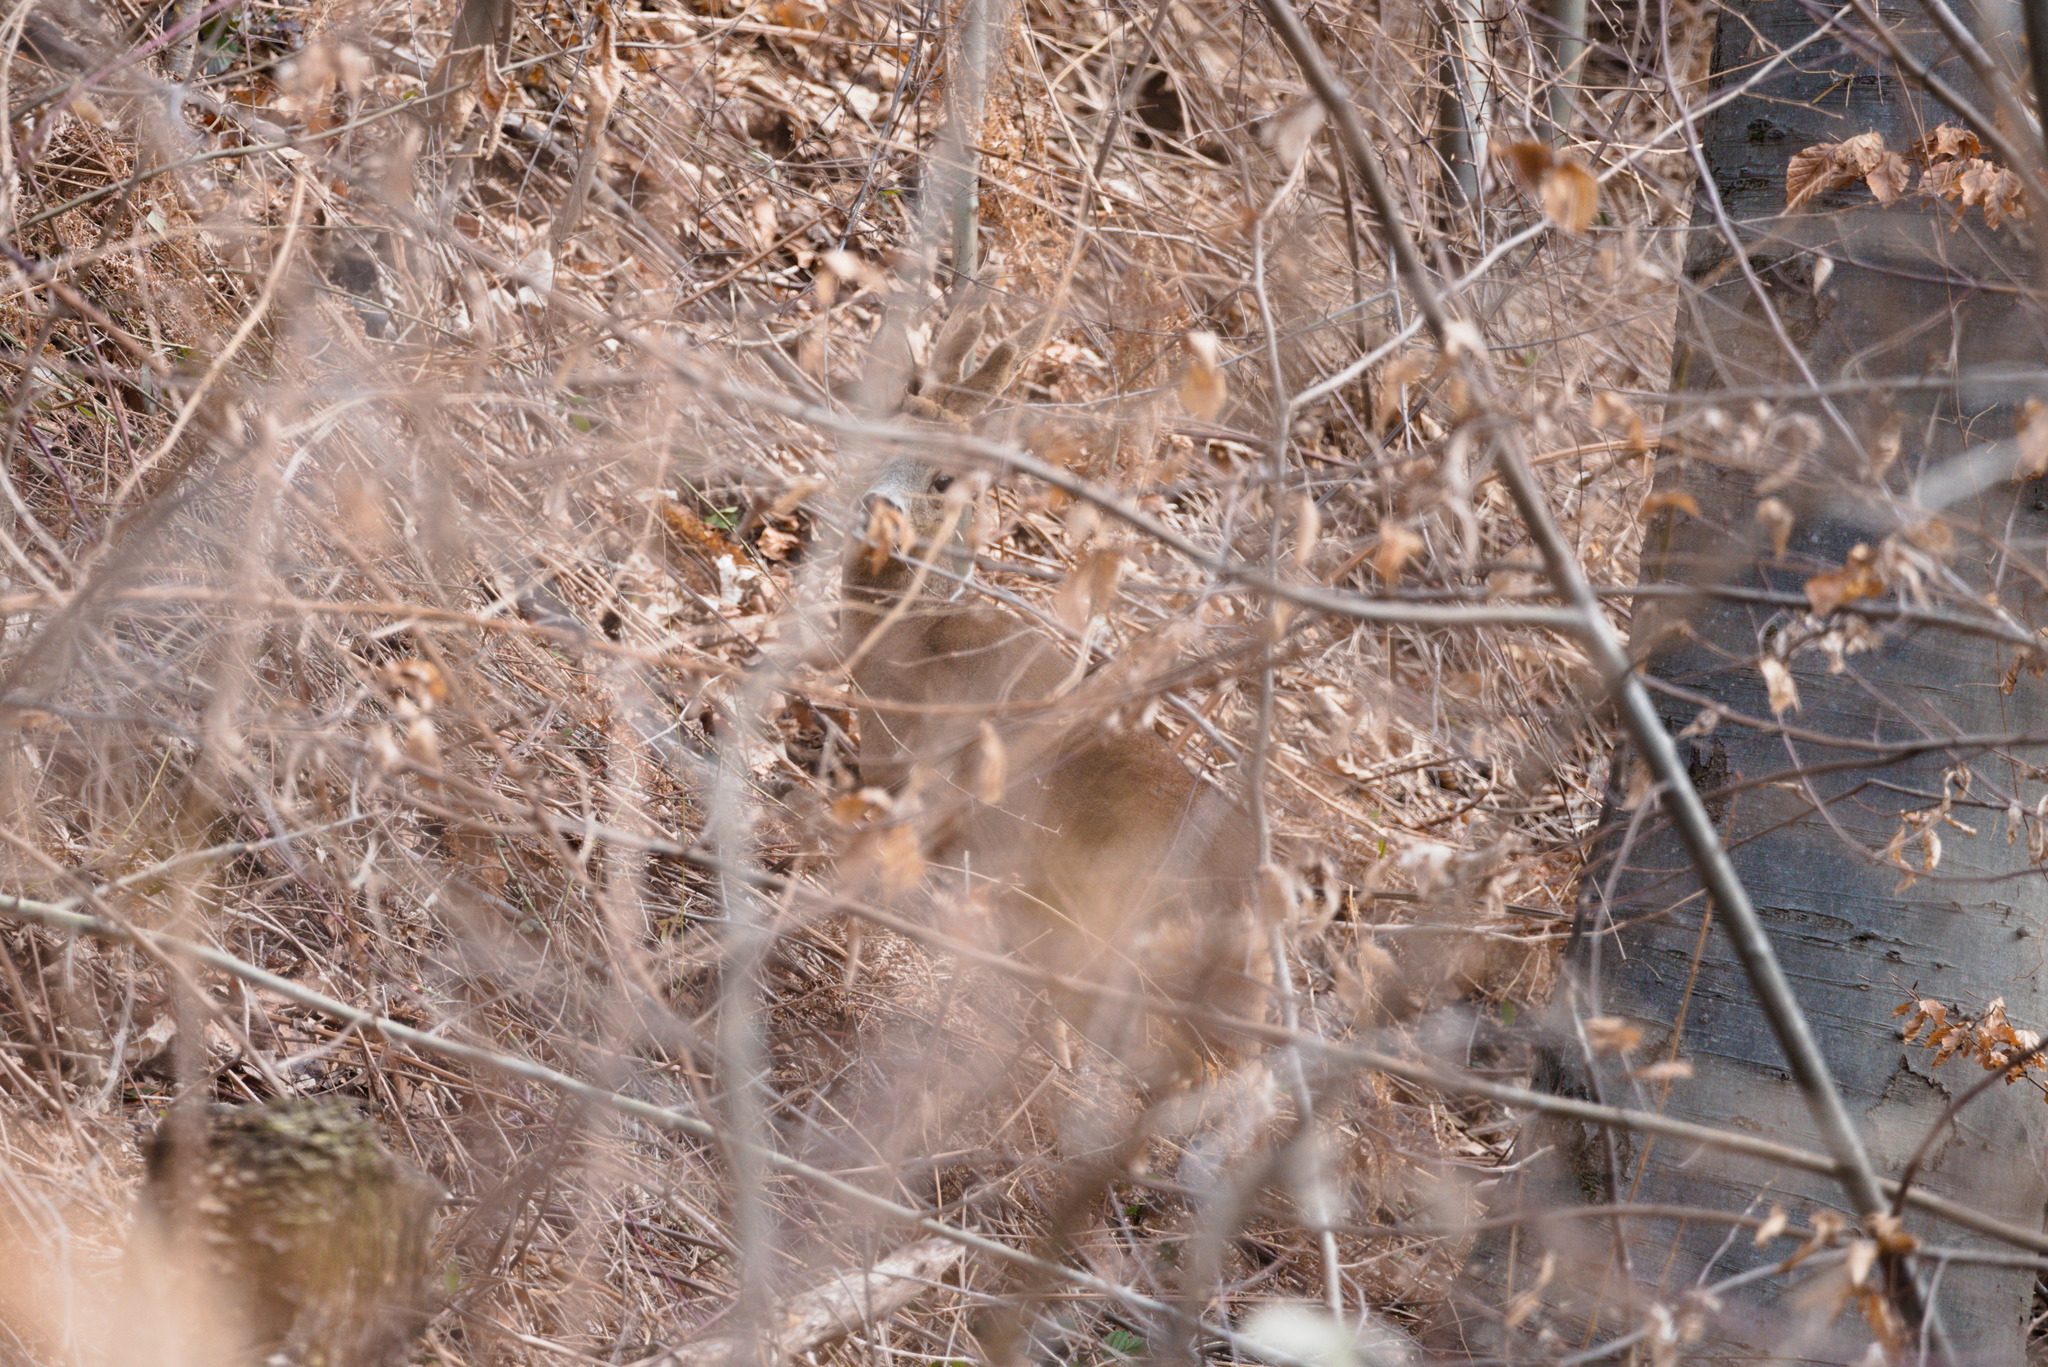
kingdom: Animalia
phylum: Chordata
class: Mammalia
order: Artiodactyla
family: Cervidae
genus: Capreolus
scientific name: Capreolus capreolus
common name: Western roe deer
